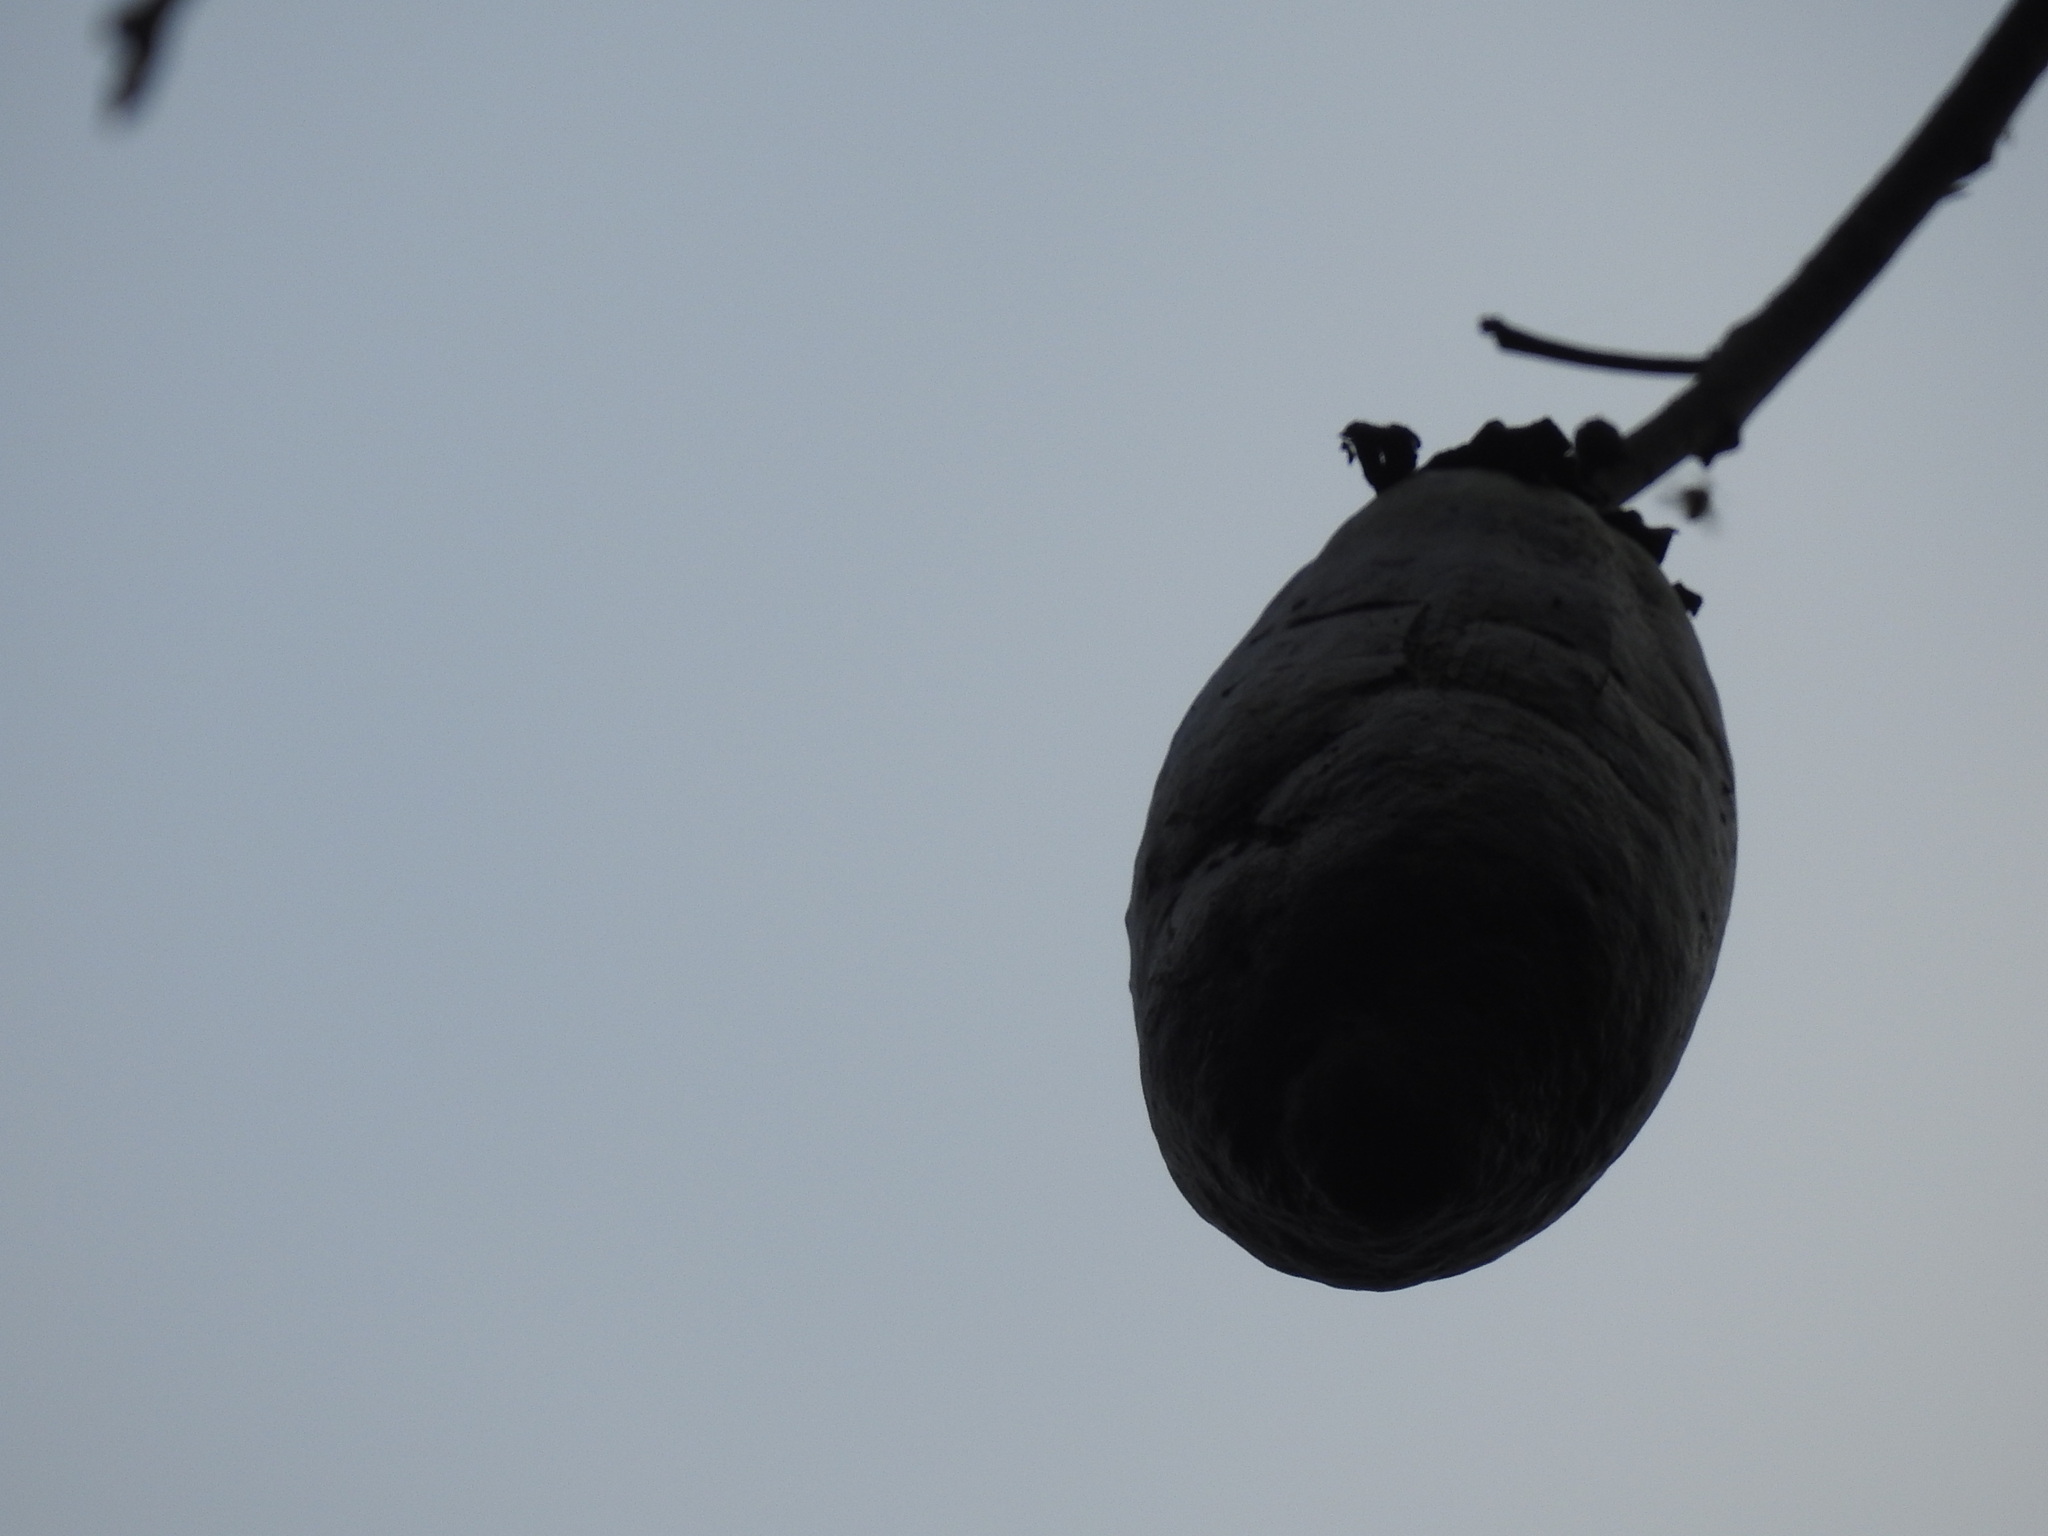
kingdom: Plantae
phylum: Tracheophyta
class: Magnoliopsida
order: Malvales
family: Malvaceae
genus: Ceiba
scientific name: Ceiba chodatii
